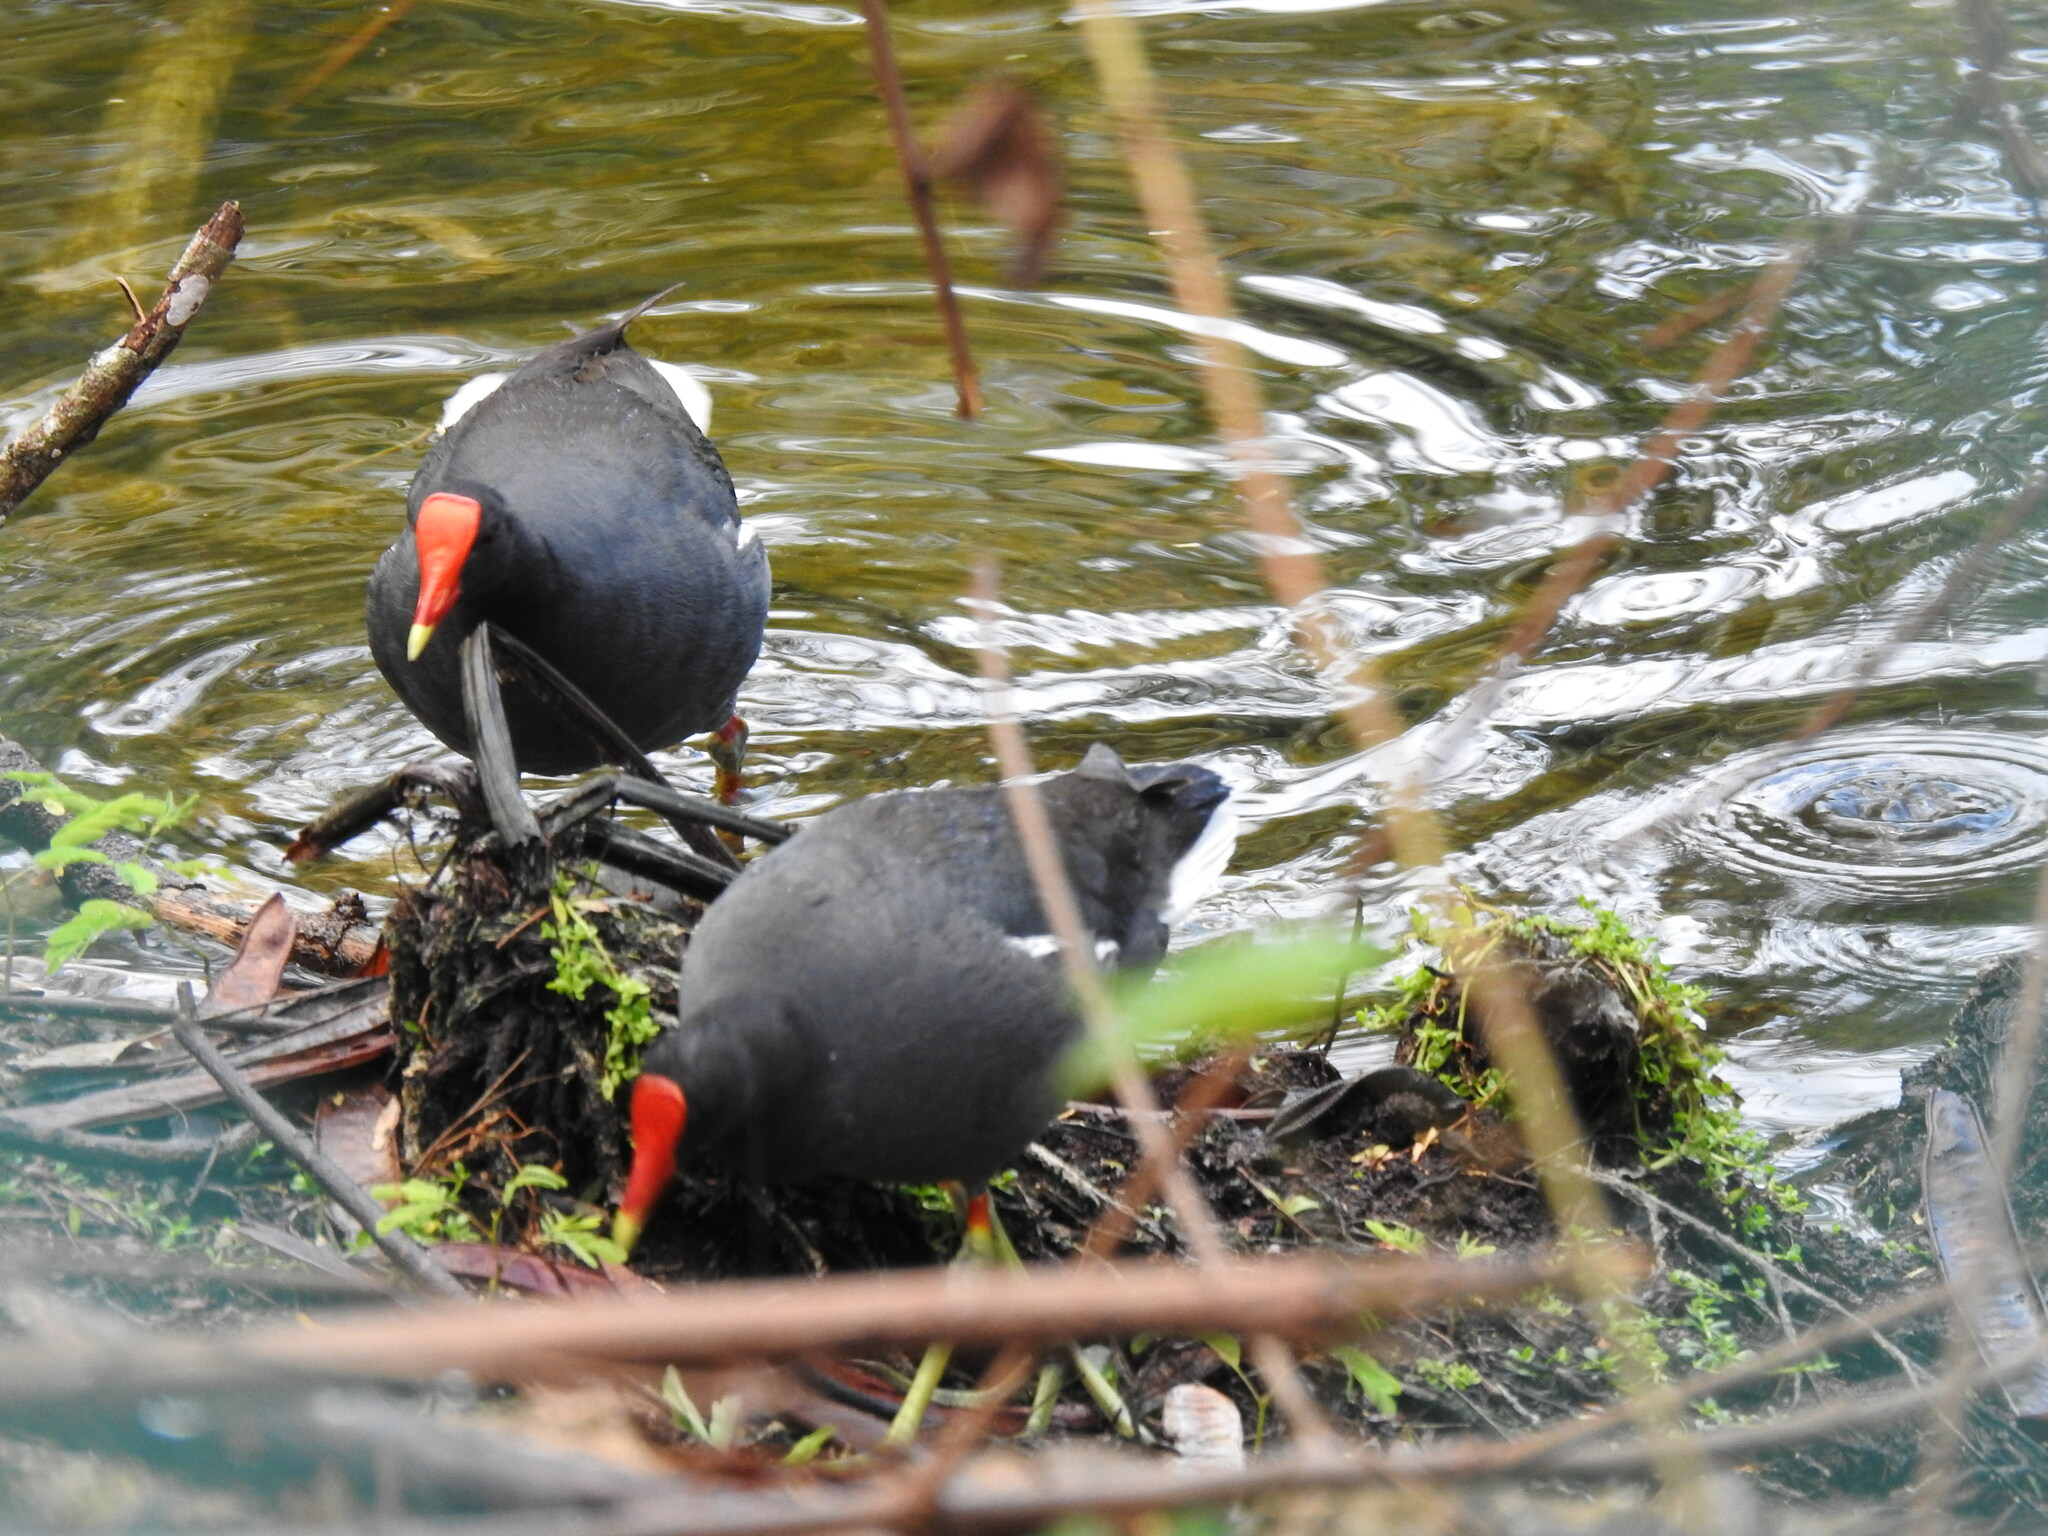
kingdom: Animalia
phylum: Chordata
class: Aves
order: Gruiformes
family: Rallidae
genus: Gallinula
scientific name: Gallinula chloropus
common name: Common moorhen
